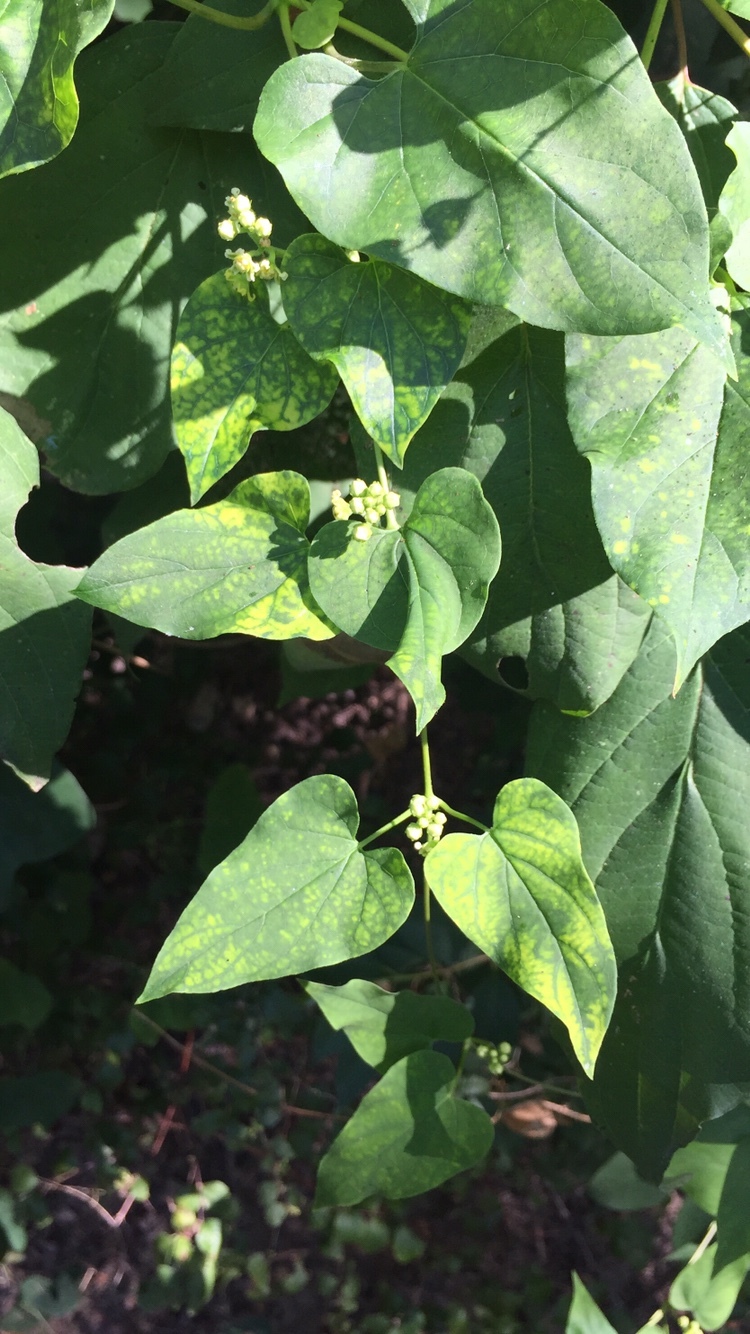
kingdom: Plantae
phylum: Tracheophyta
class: Magnoliopsida
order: Gentianales
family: Apocynaceae
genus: Cynanchum
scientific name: Cynanchum racemosum
